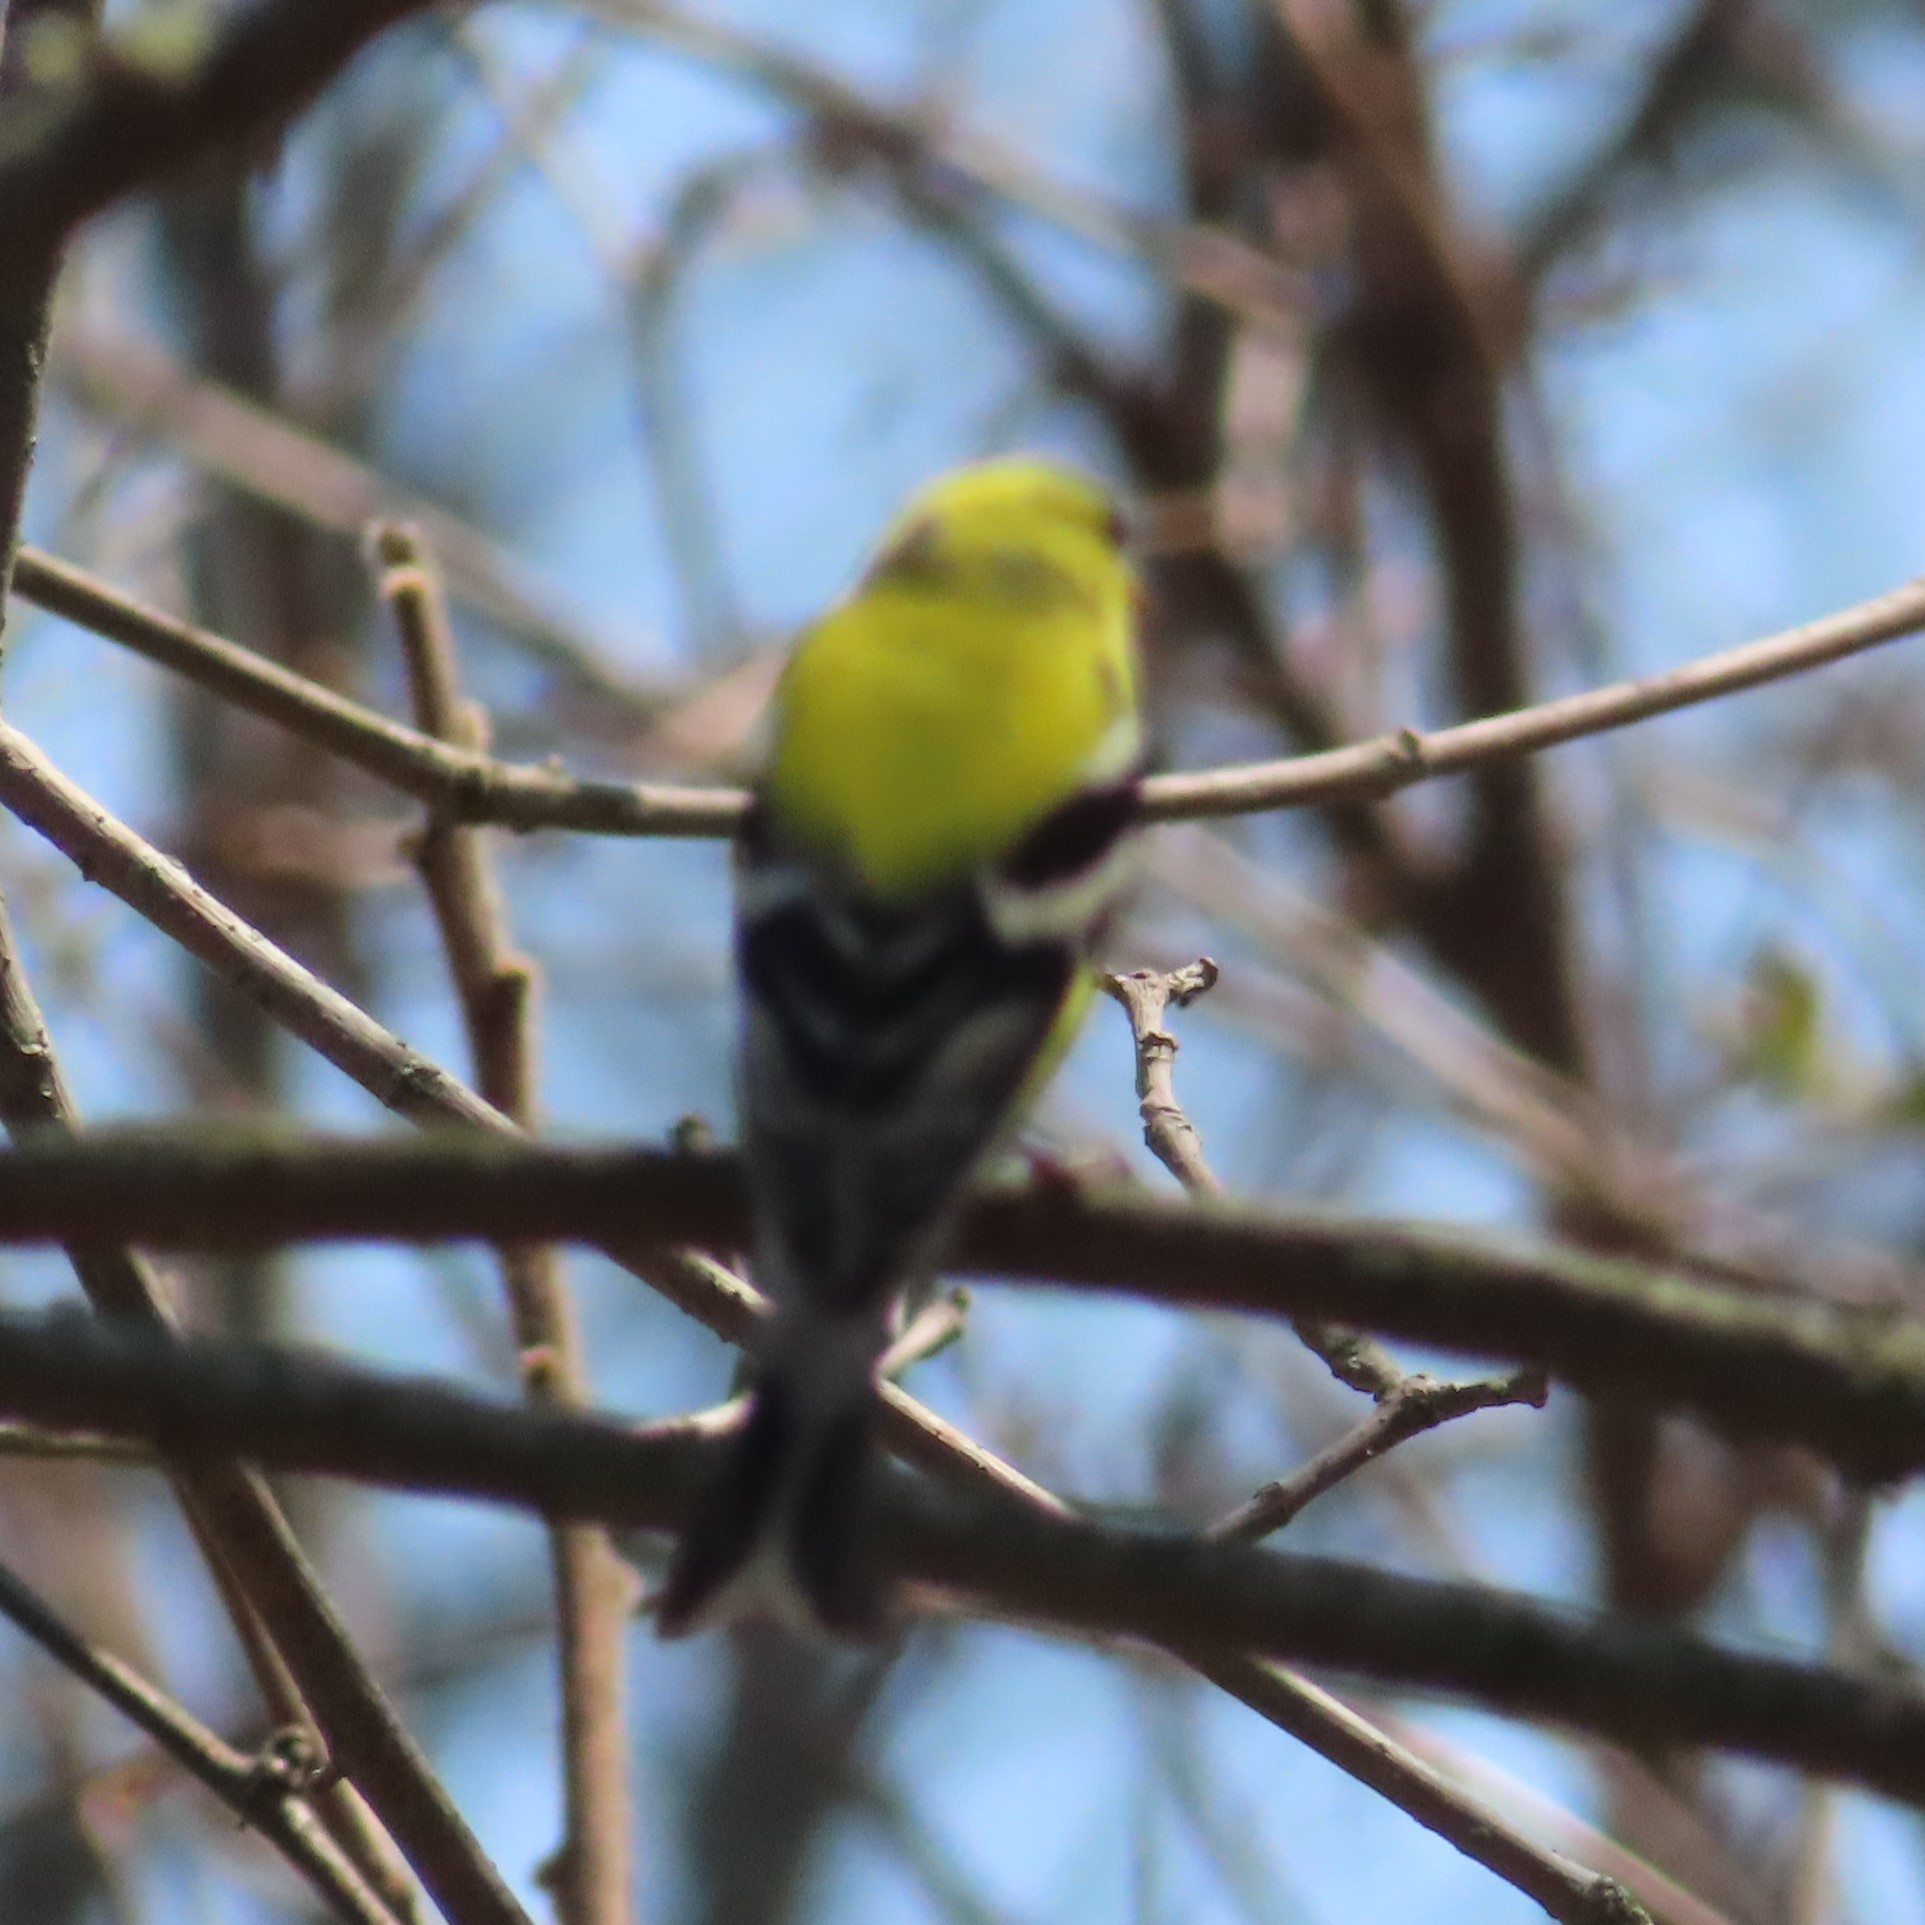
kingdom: Animalia
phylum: Chordata
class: Aves
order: Passeriformes
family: Fringillidae
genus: Spinus
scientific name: Spinus tristis
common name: American goldfinch
